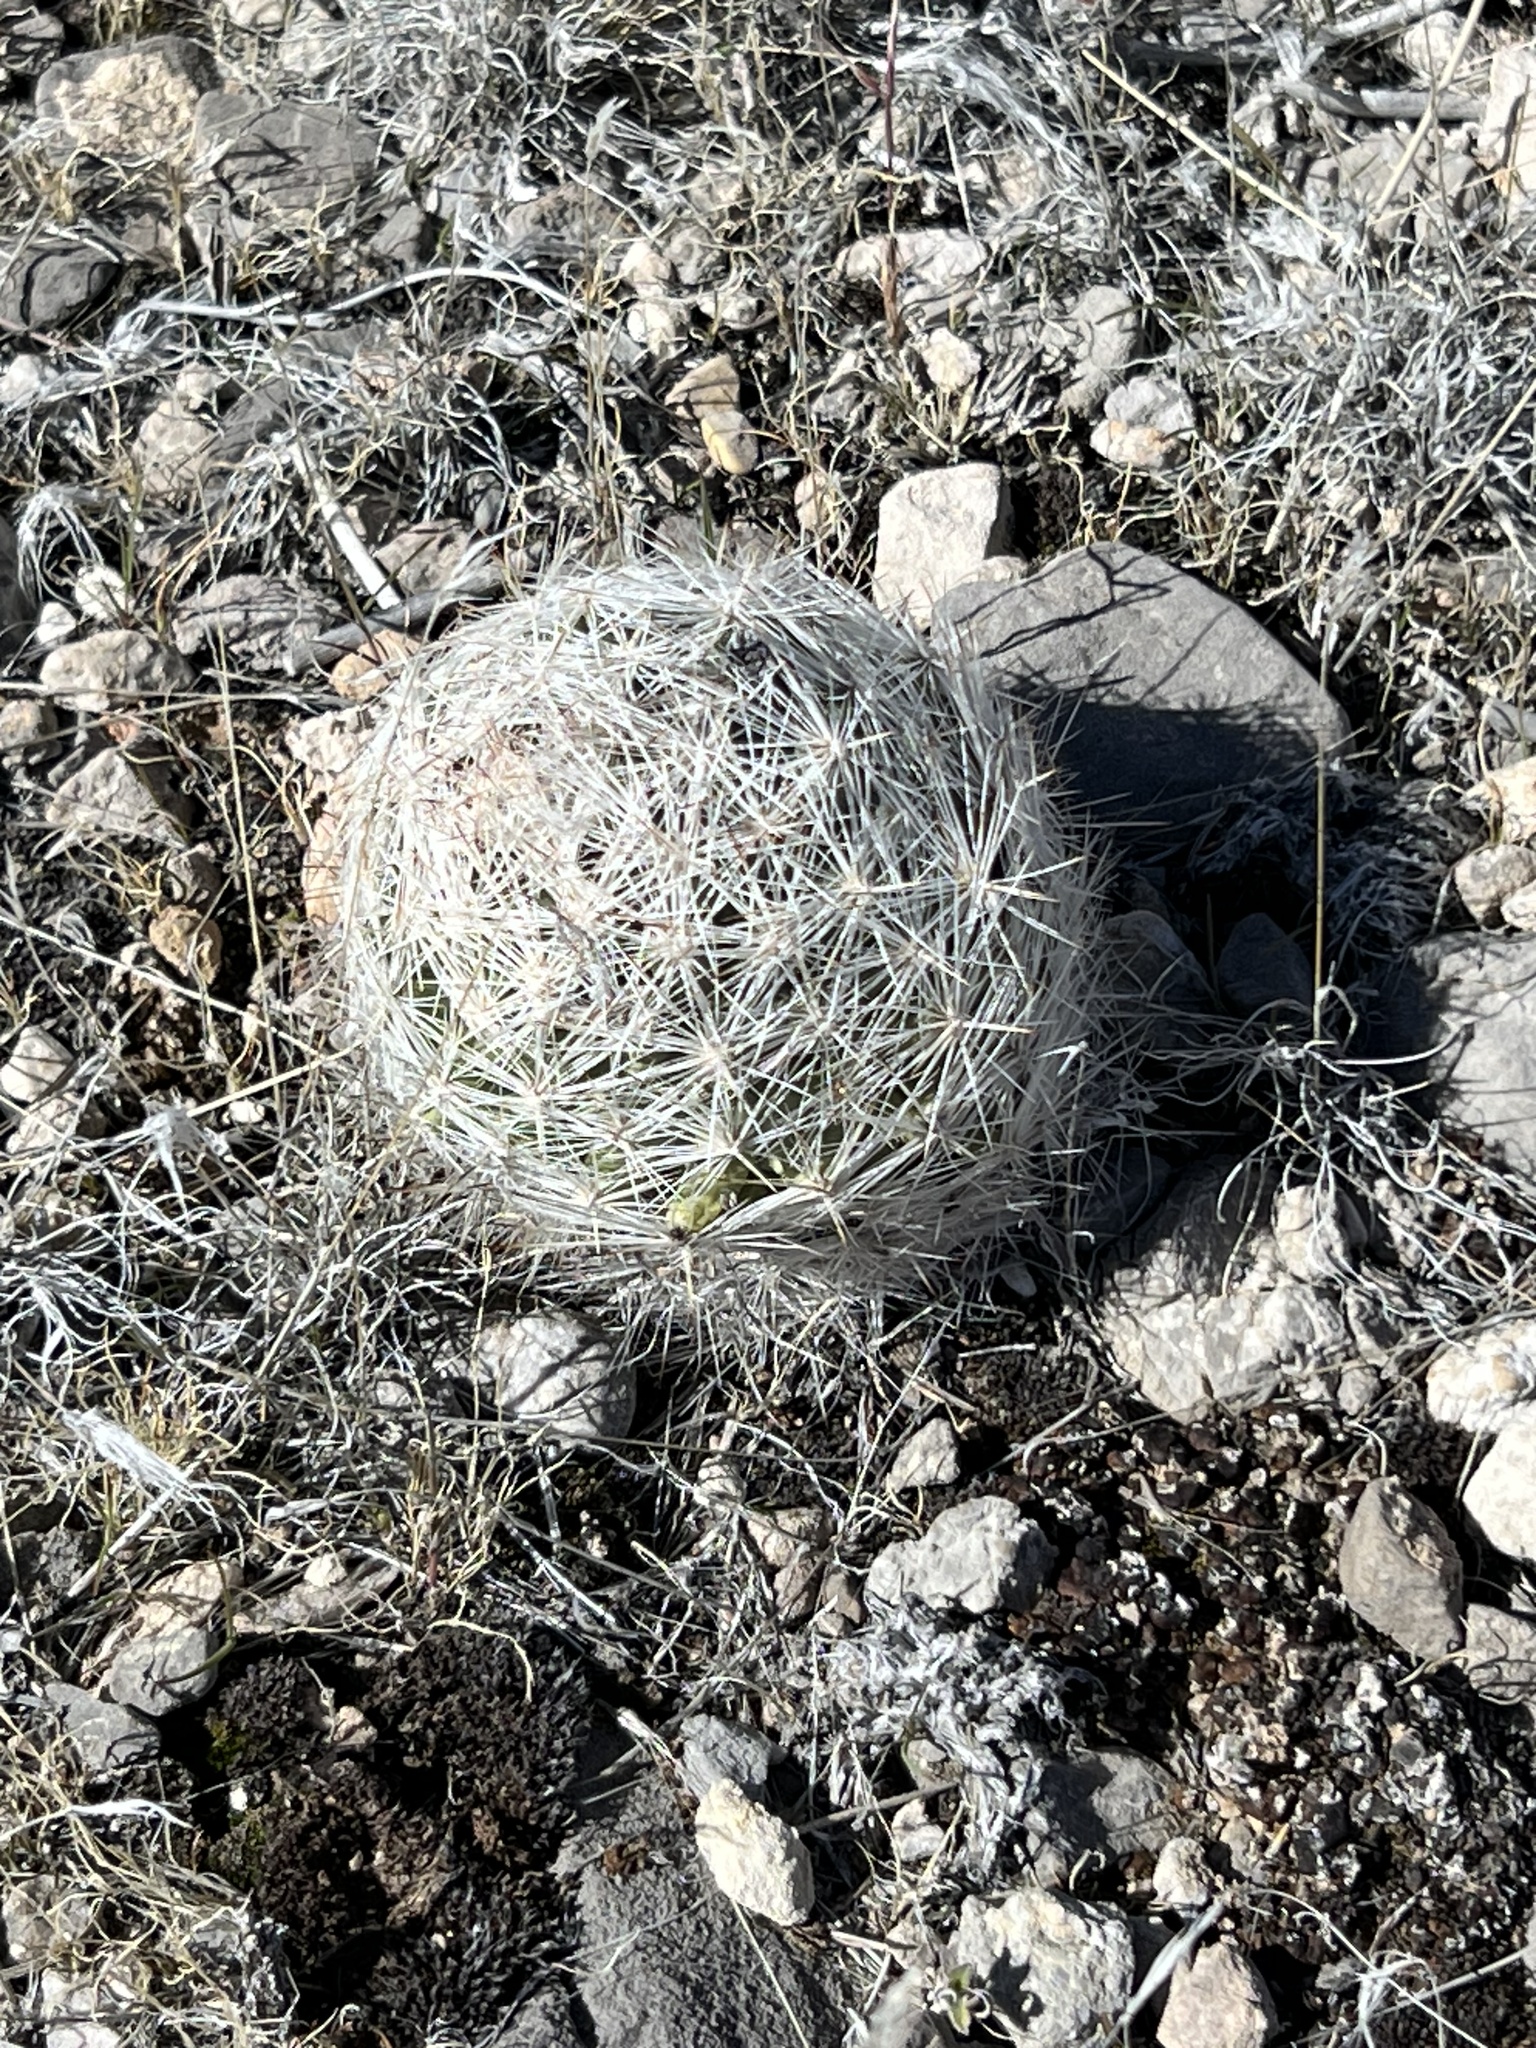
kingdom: Plantae
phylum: Tracheophyta
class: Magnoliopsida
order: Caryophyllales
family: Cactaceae
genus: Pelecyphora
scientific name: Pelecyphora dasyacantha
